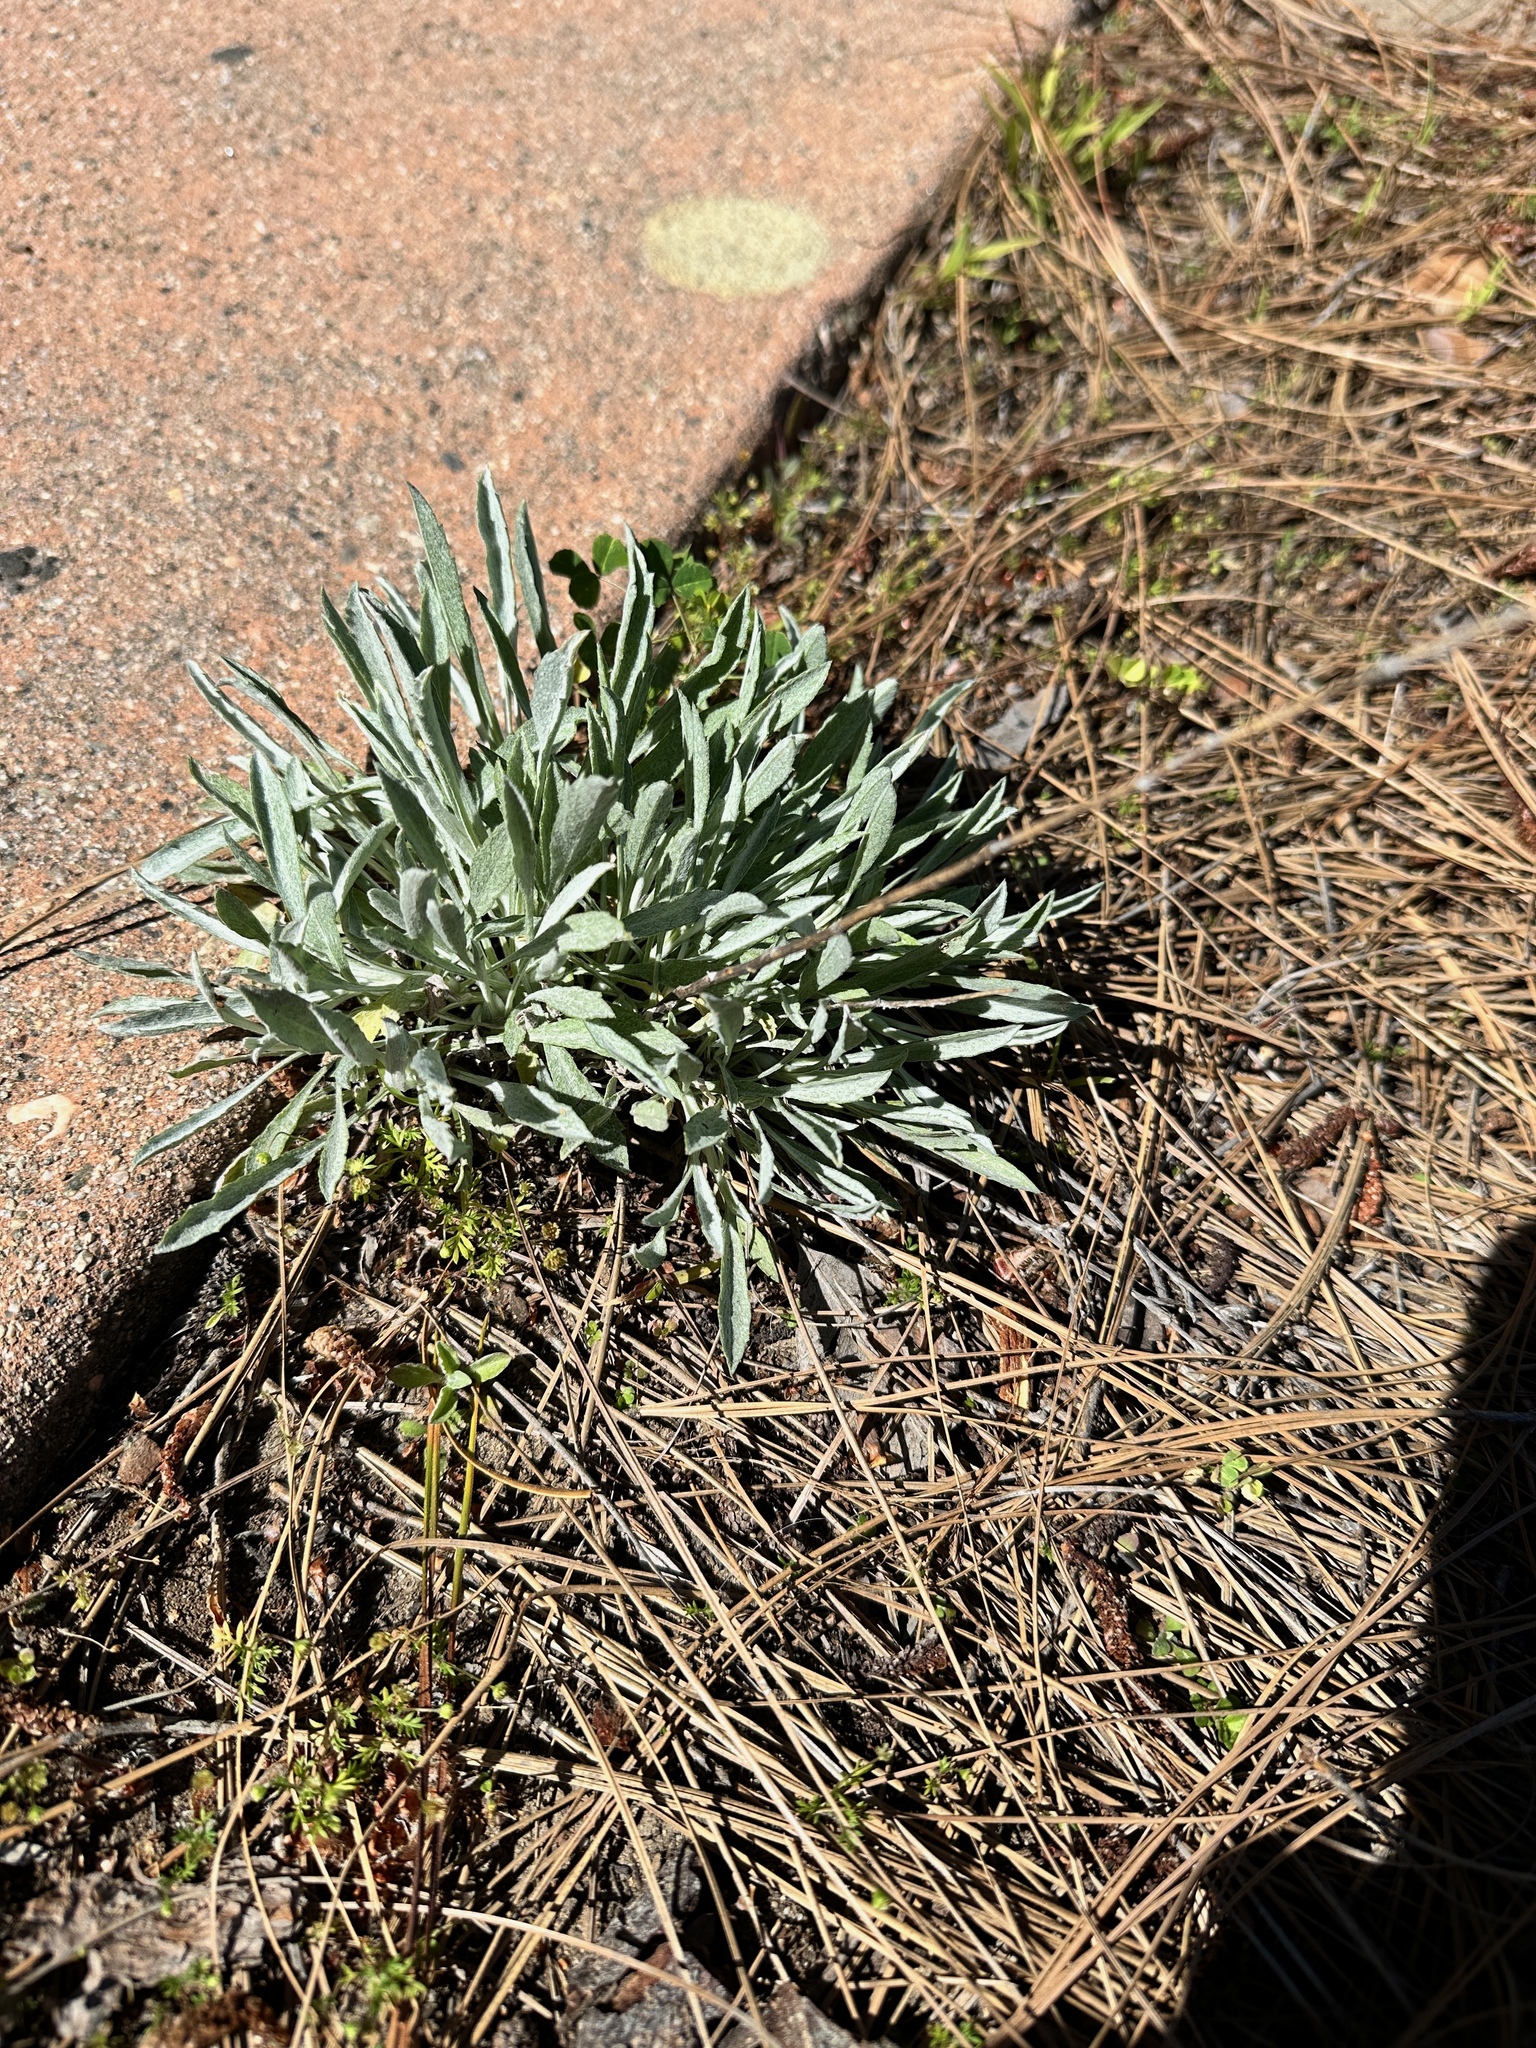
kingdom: Plantae
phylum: Tracheophyta
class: Magnoliopsida
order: Asterales
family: Asteraceae
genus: Corethrogyne
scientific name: Corethrogyne filaginifolia
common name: Sand-aster
